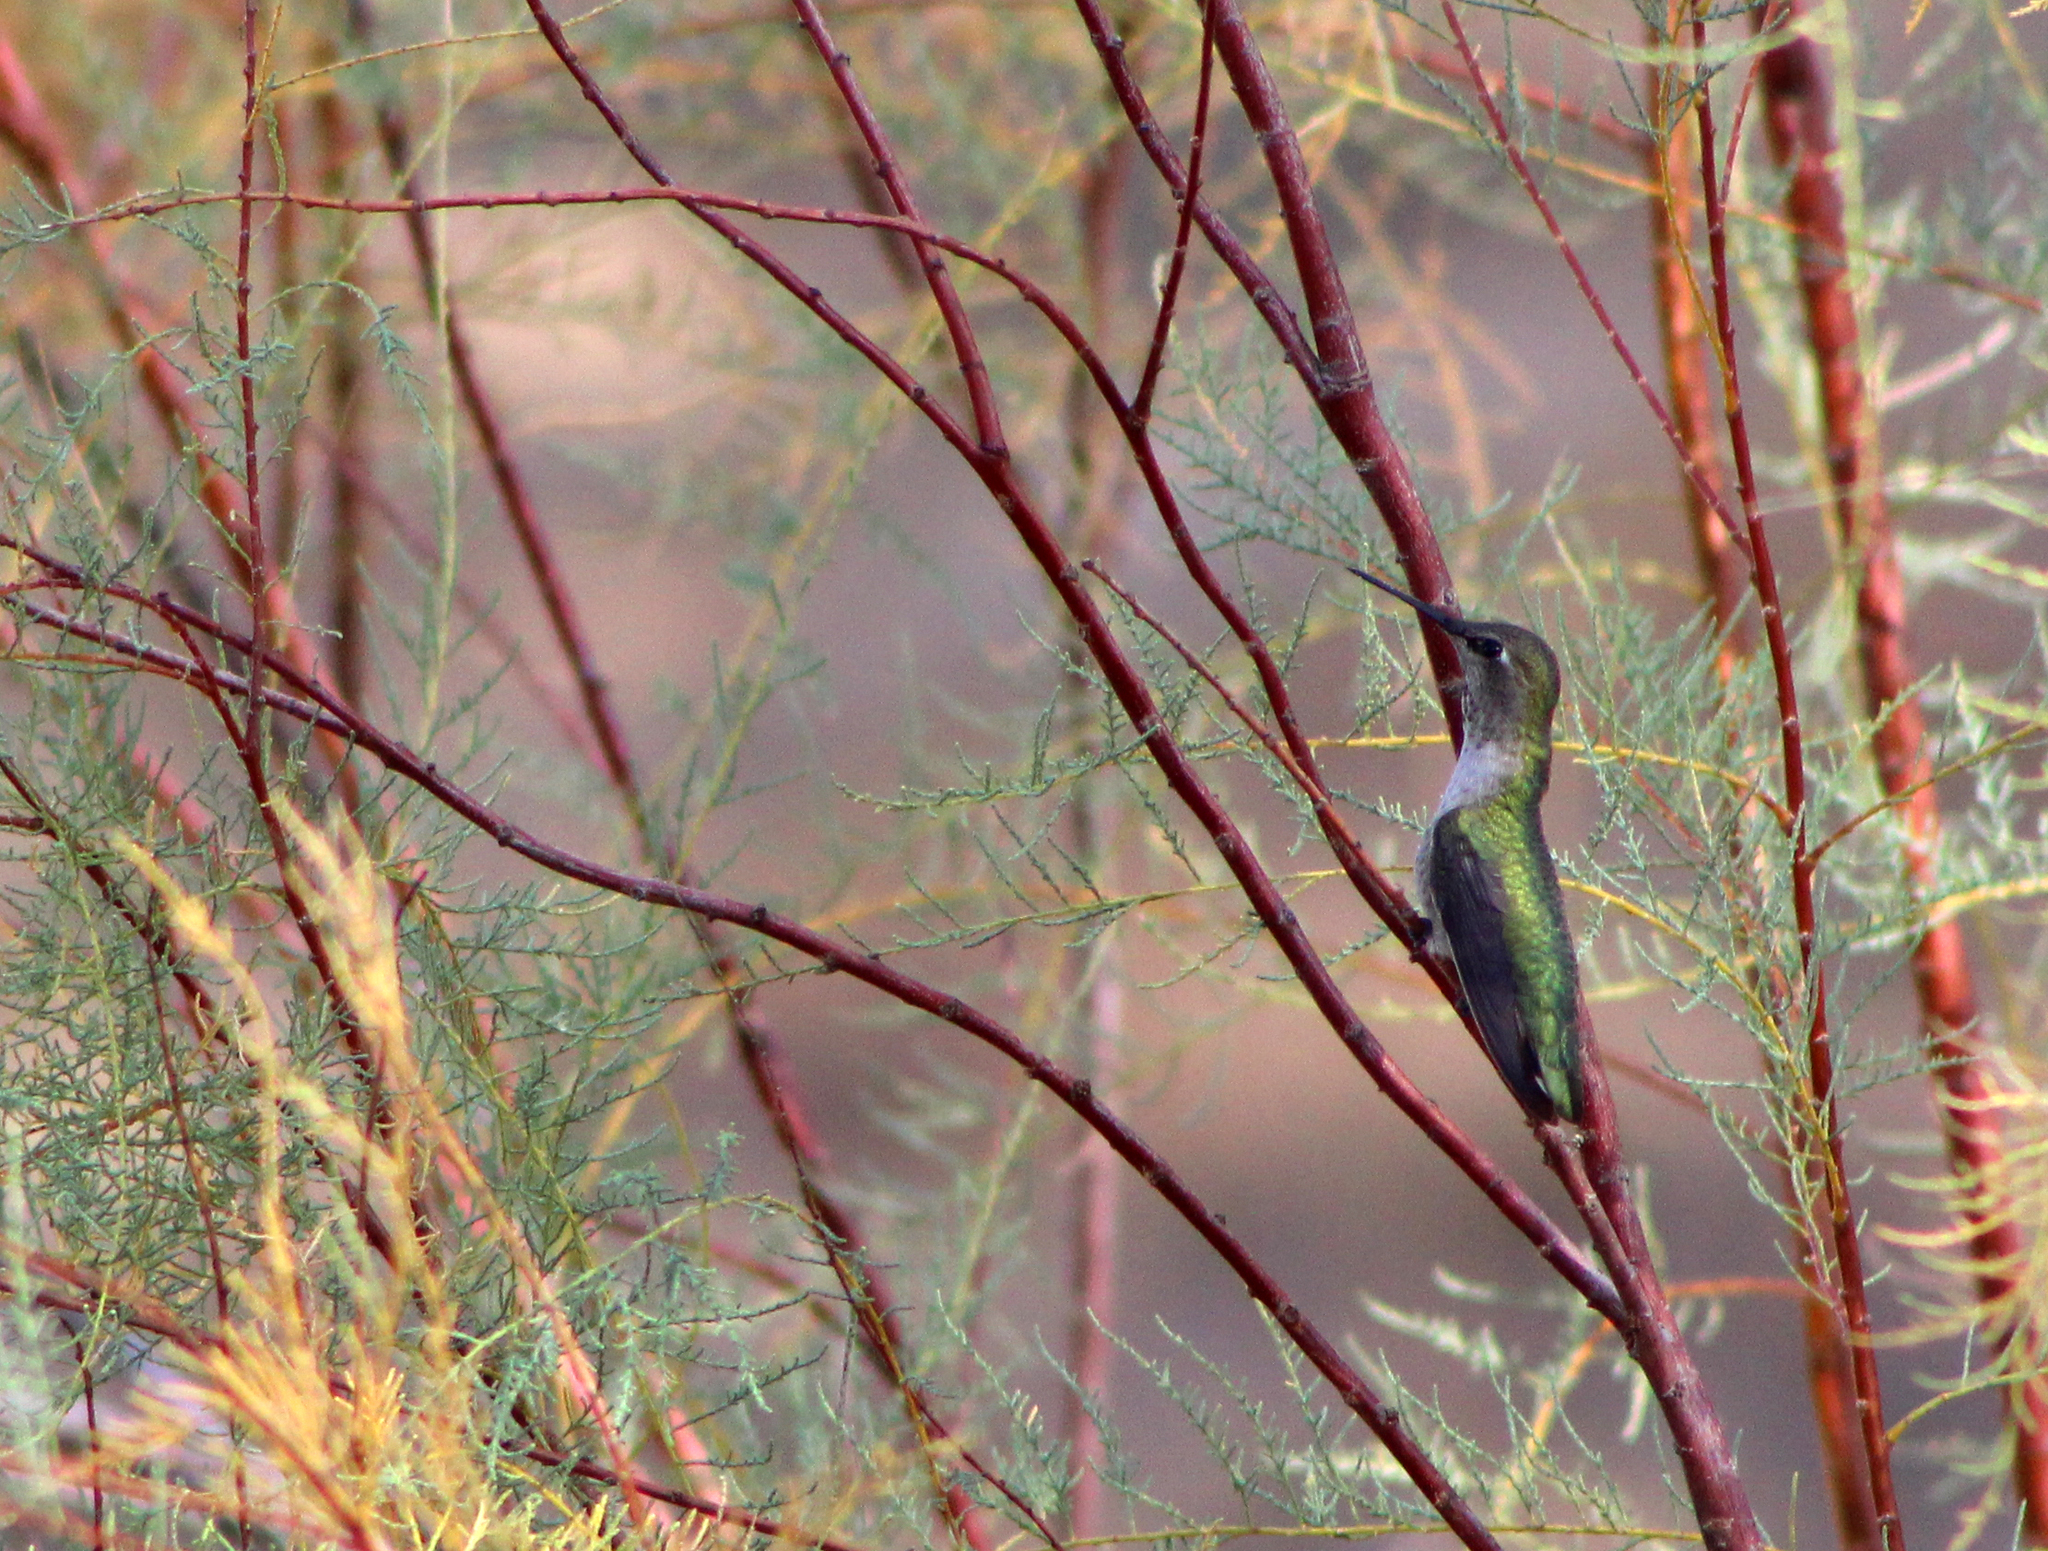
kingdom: Animalia
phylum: Chordata
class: Aves
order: Apodiformes
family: Trochilidae
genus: Calypte
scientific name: Calypte anna
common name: Anna's hummingbird
